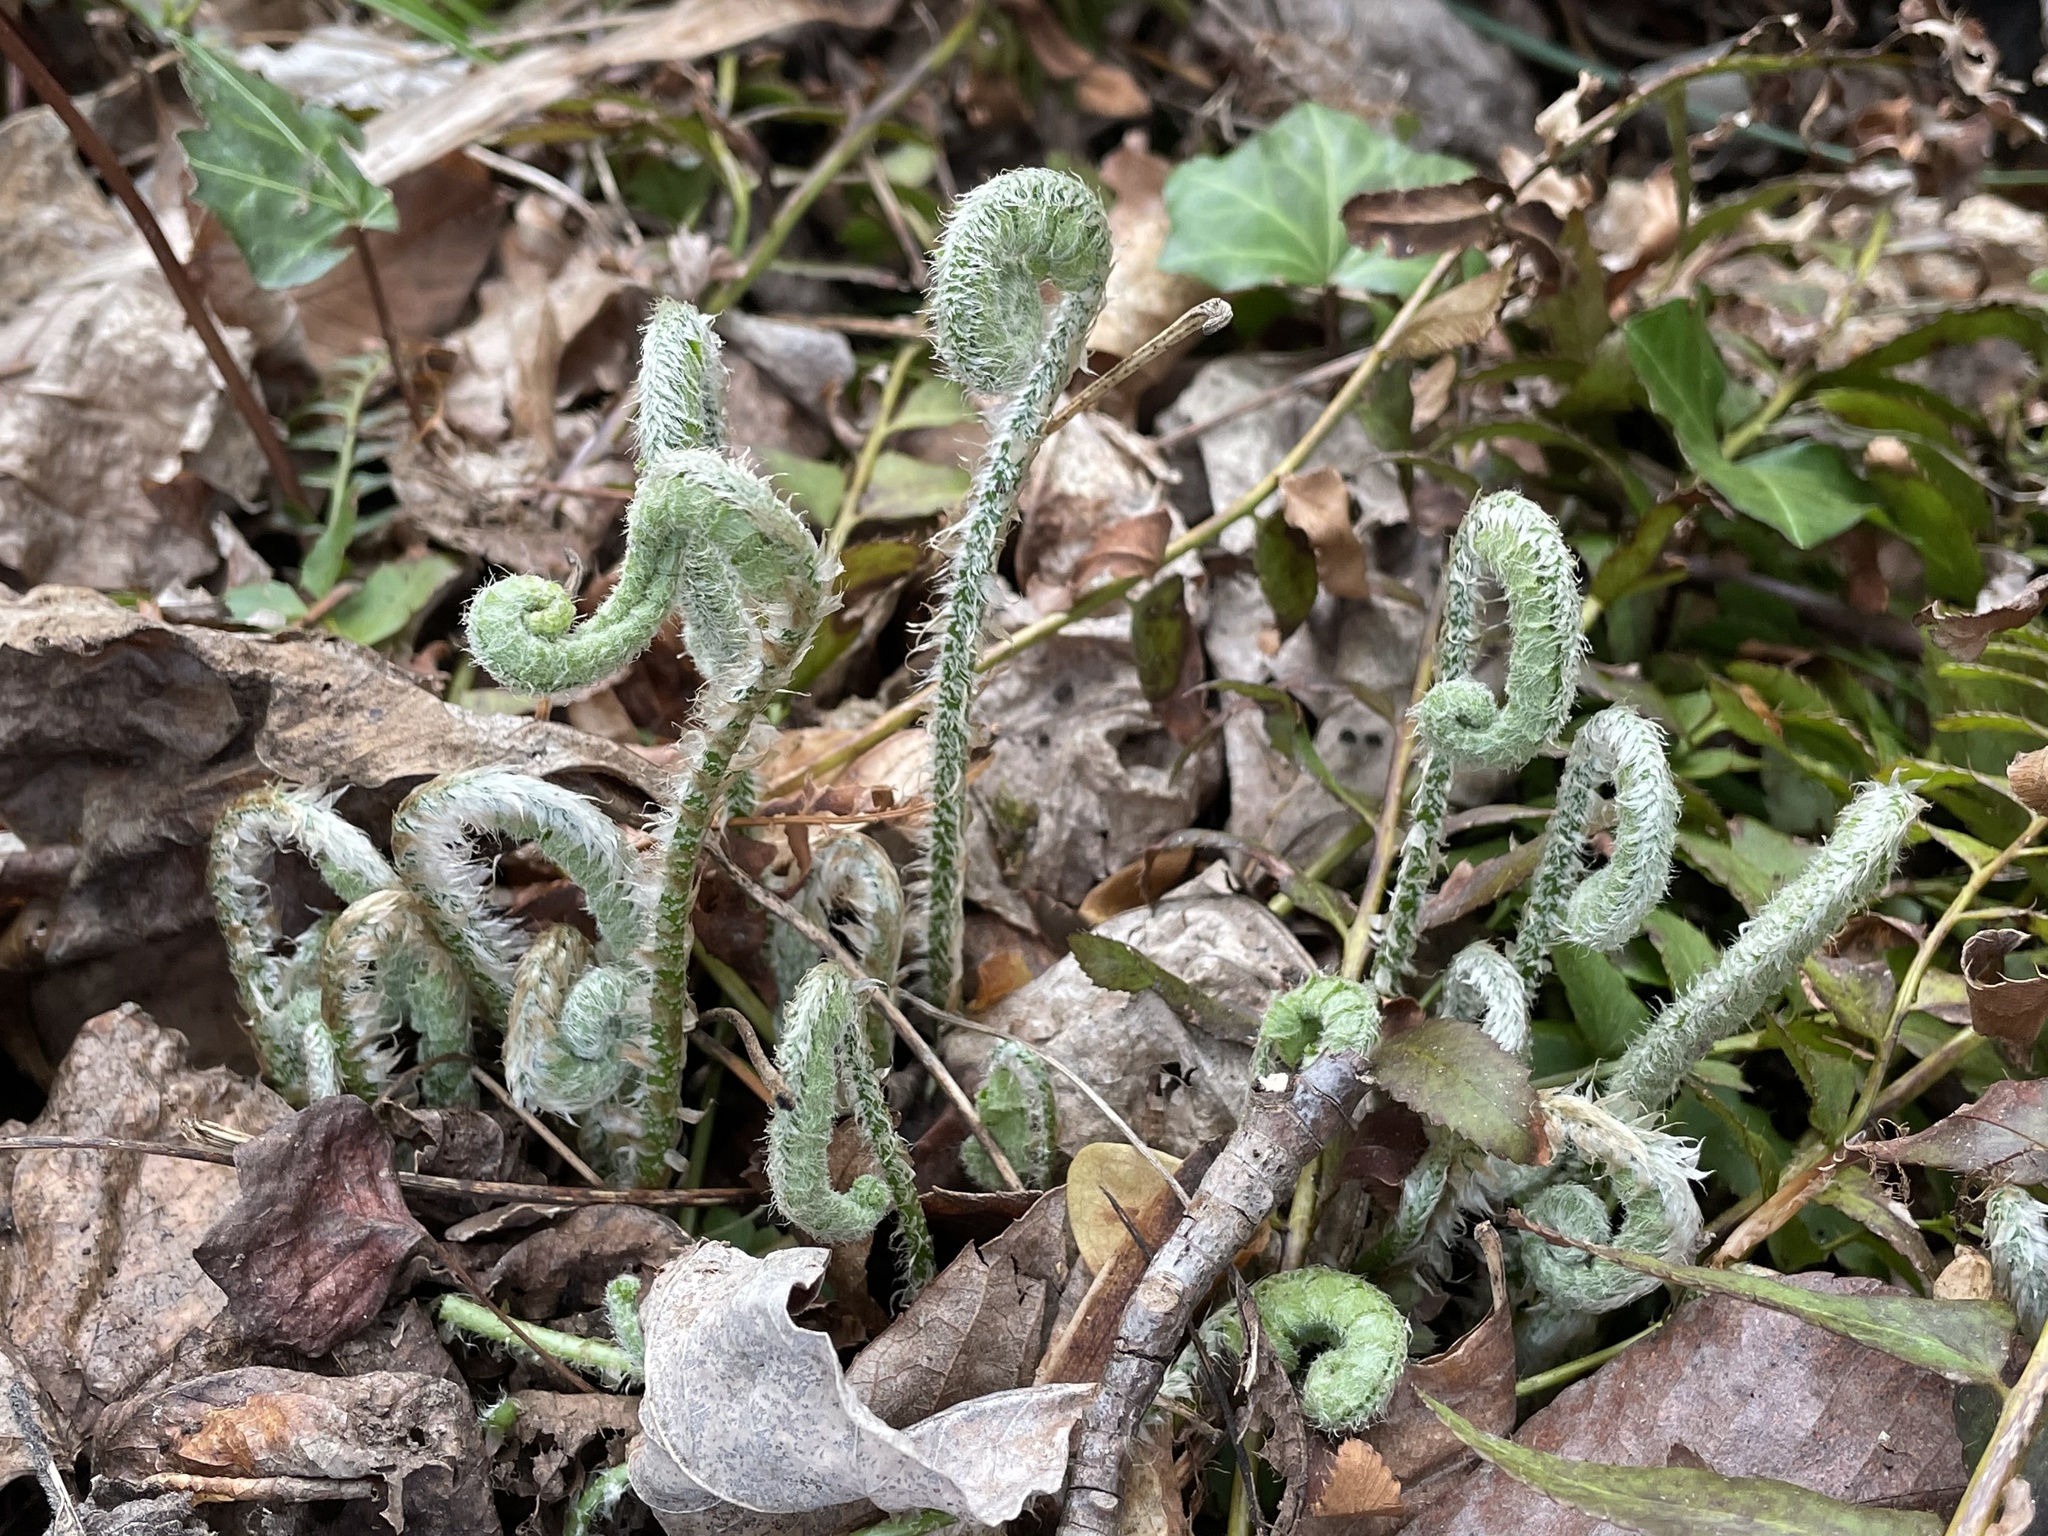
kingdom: Plantae
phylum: Tracheophyta
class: Polypodiopsida
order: Polypodiales
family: Dryopteridaceae
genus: Polystichum
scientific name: Polystichum acrostichoides
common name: Christmas fern
